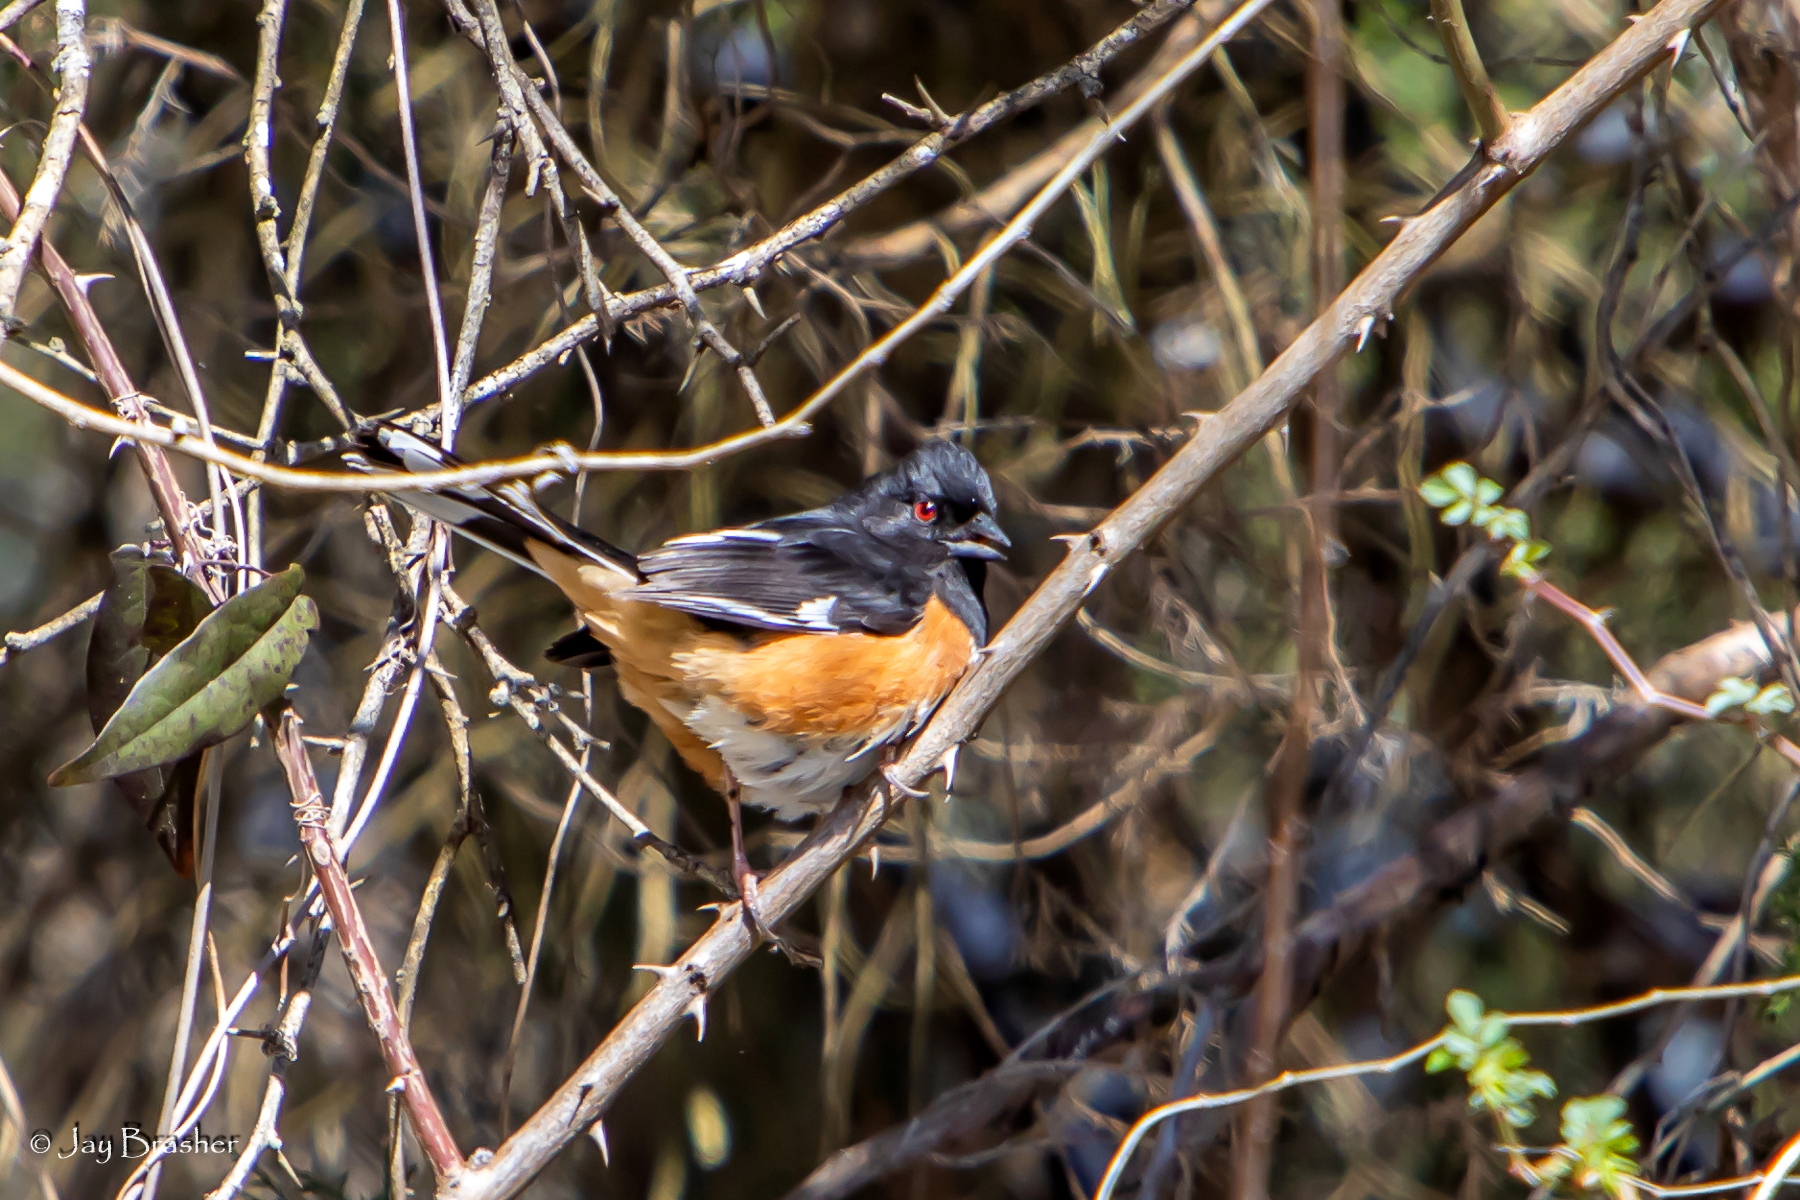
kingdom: Animalia
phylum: Chordata
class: Aves
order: Passeriformes
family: Passerellidae
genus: Pipilo
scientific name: Pipilo erythrophthalmus
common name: Eastern towhee
